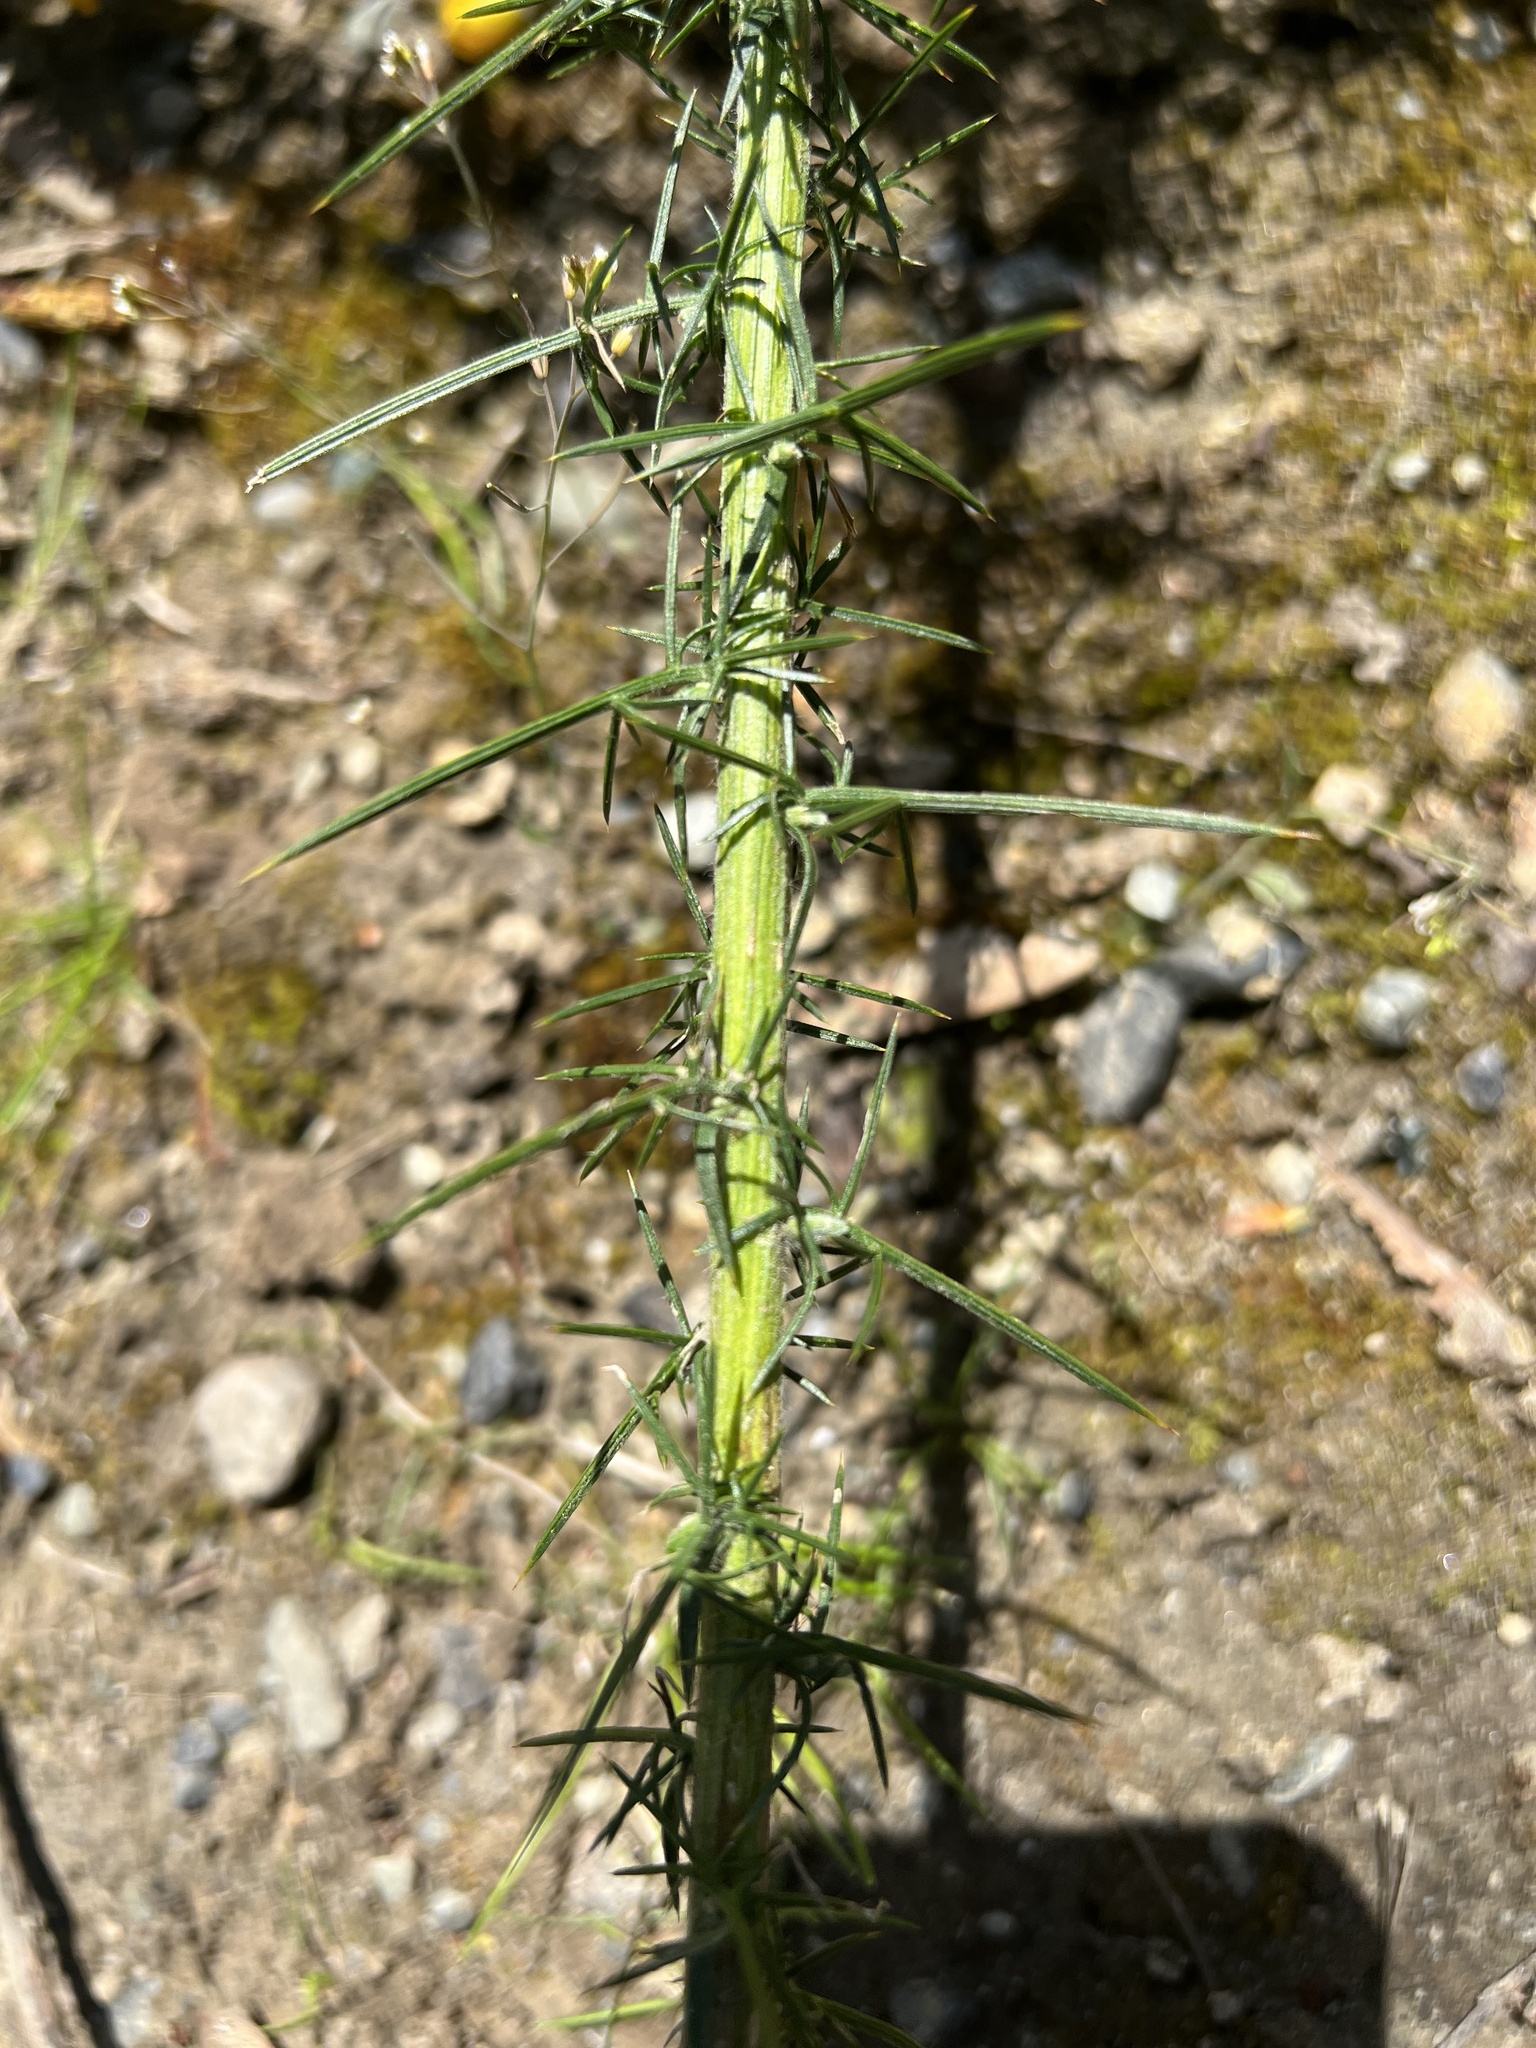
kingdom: Plantae
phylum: Tracheophyta
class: Magnoliopsida
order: Fabales
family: Fabaceae
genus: Ulex
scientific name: Ulex europaeus
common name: Common gorse
